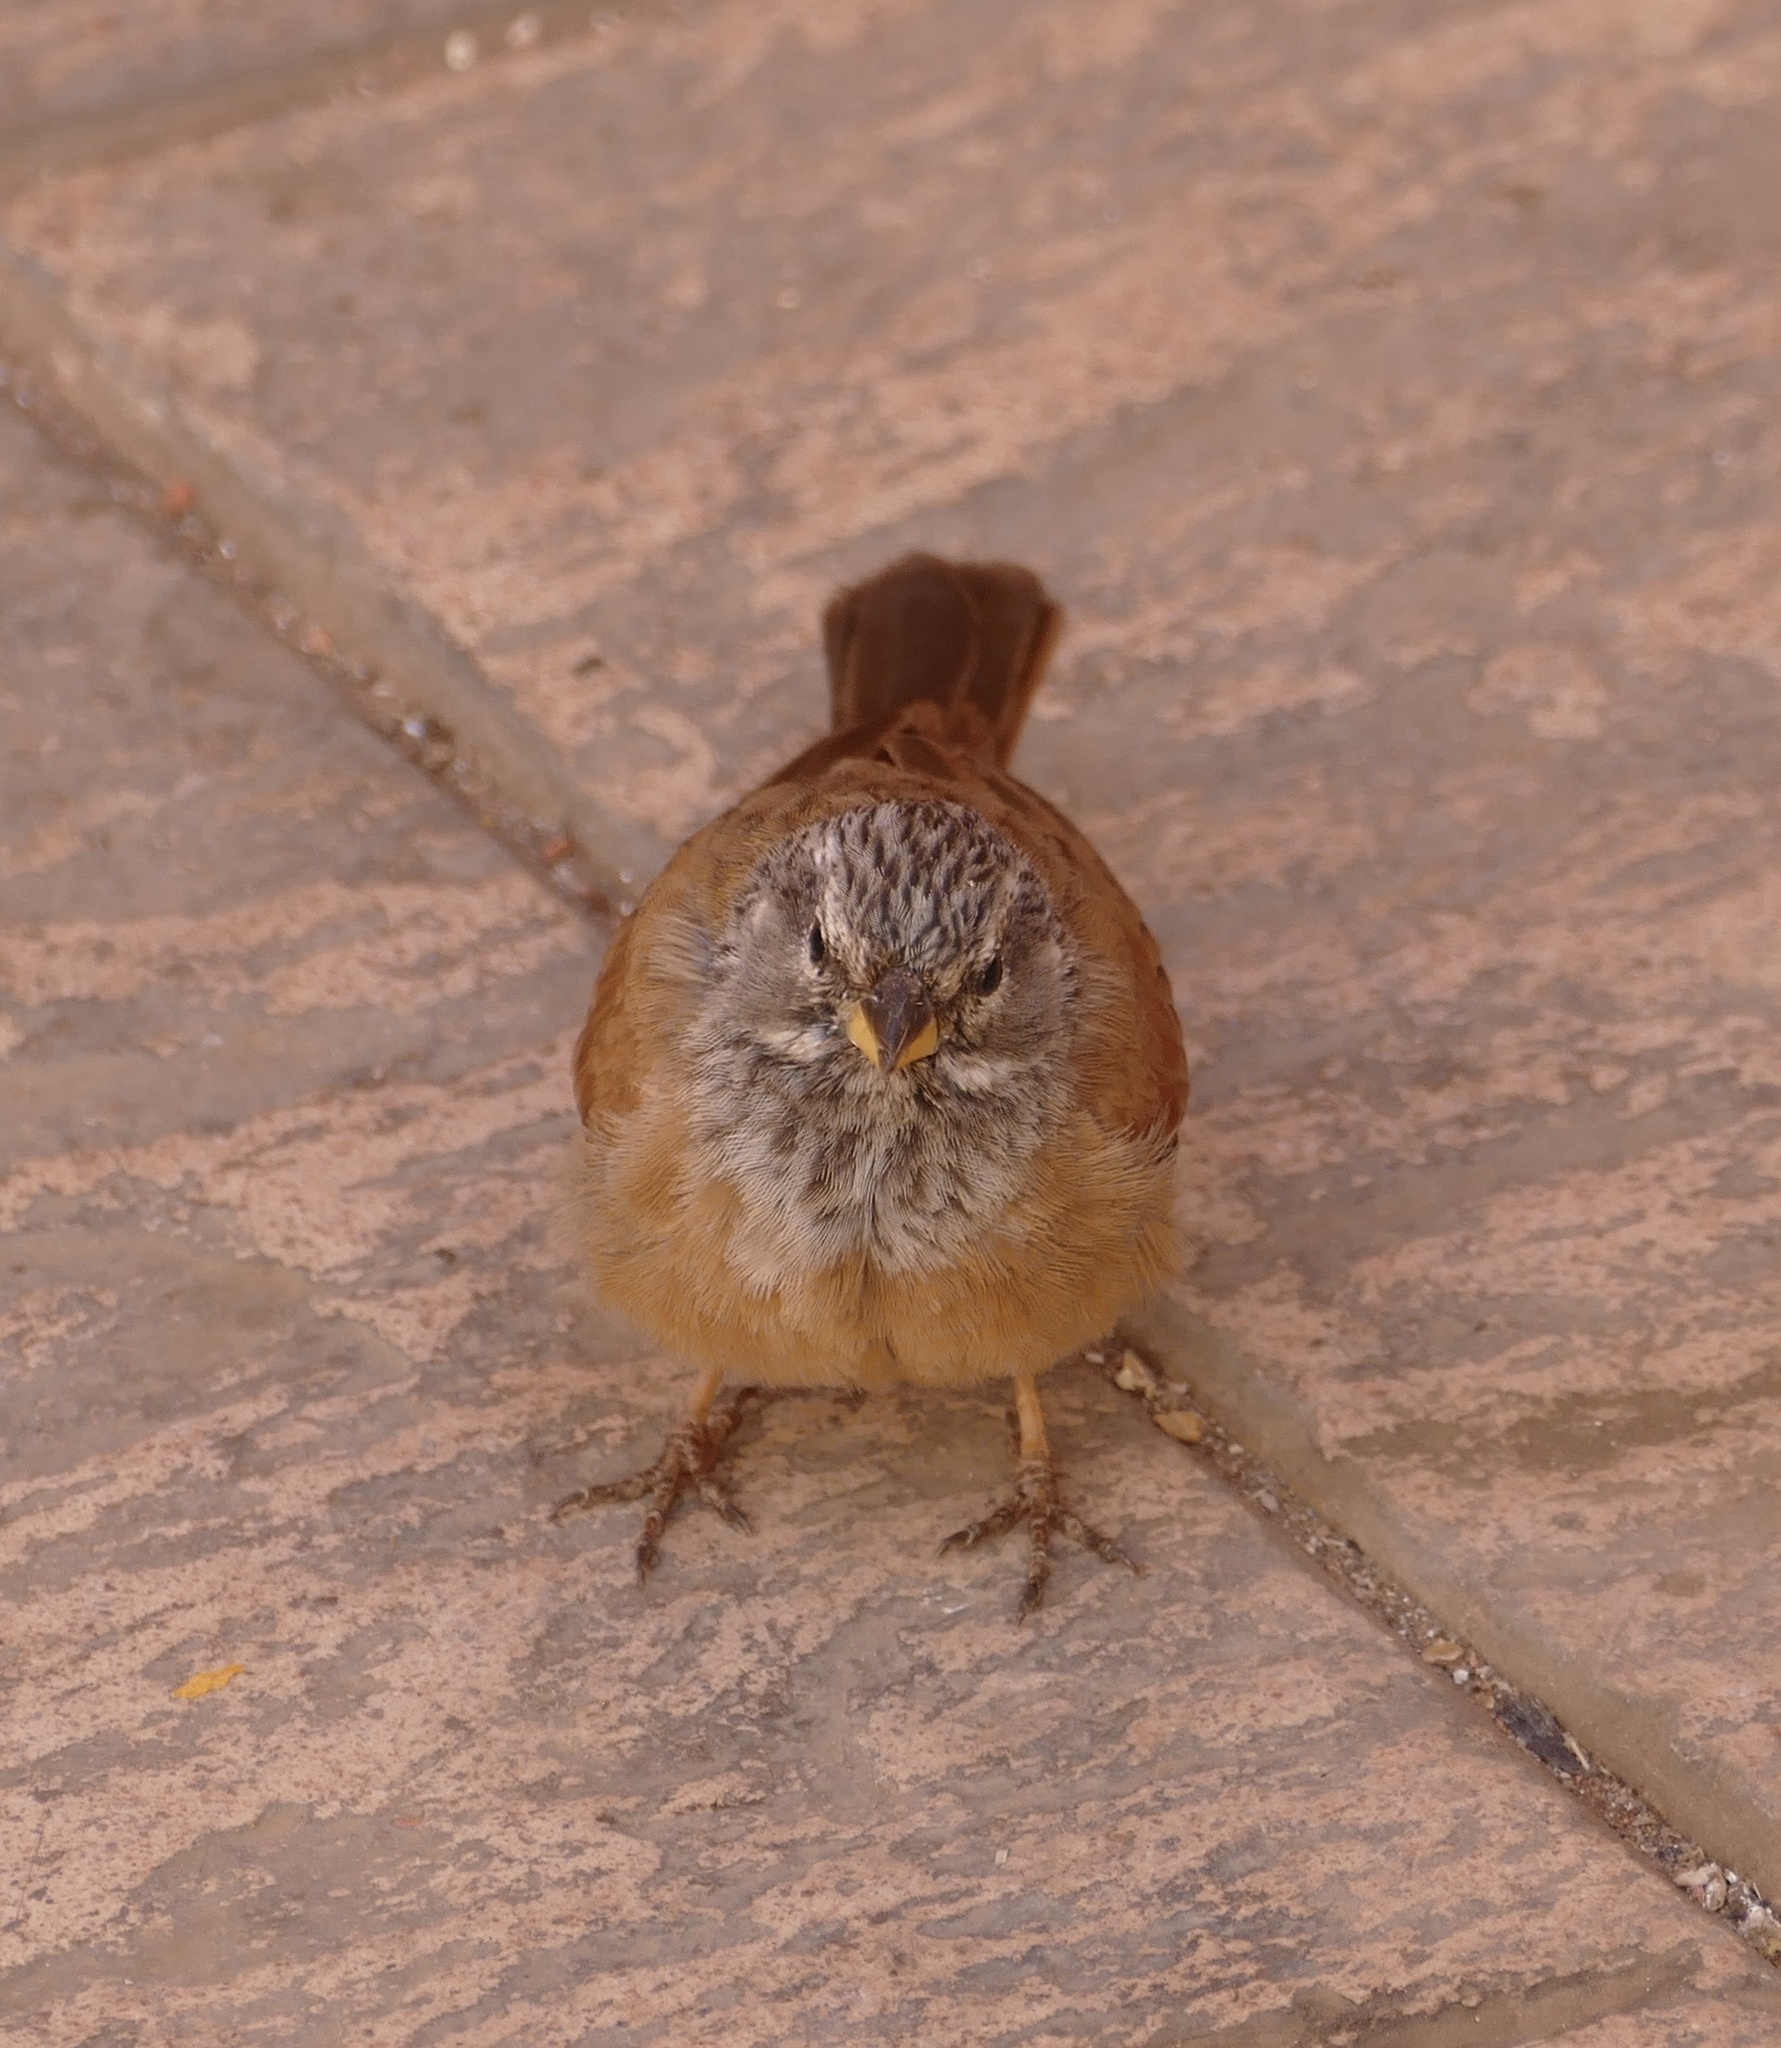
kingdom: Animalia
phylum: Chordata
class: Aves
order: Passeriformes
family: Emberizidae
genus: Emberiza
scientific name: Emberiza sahari
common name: House bunting
